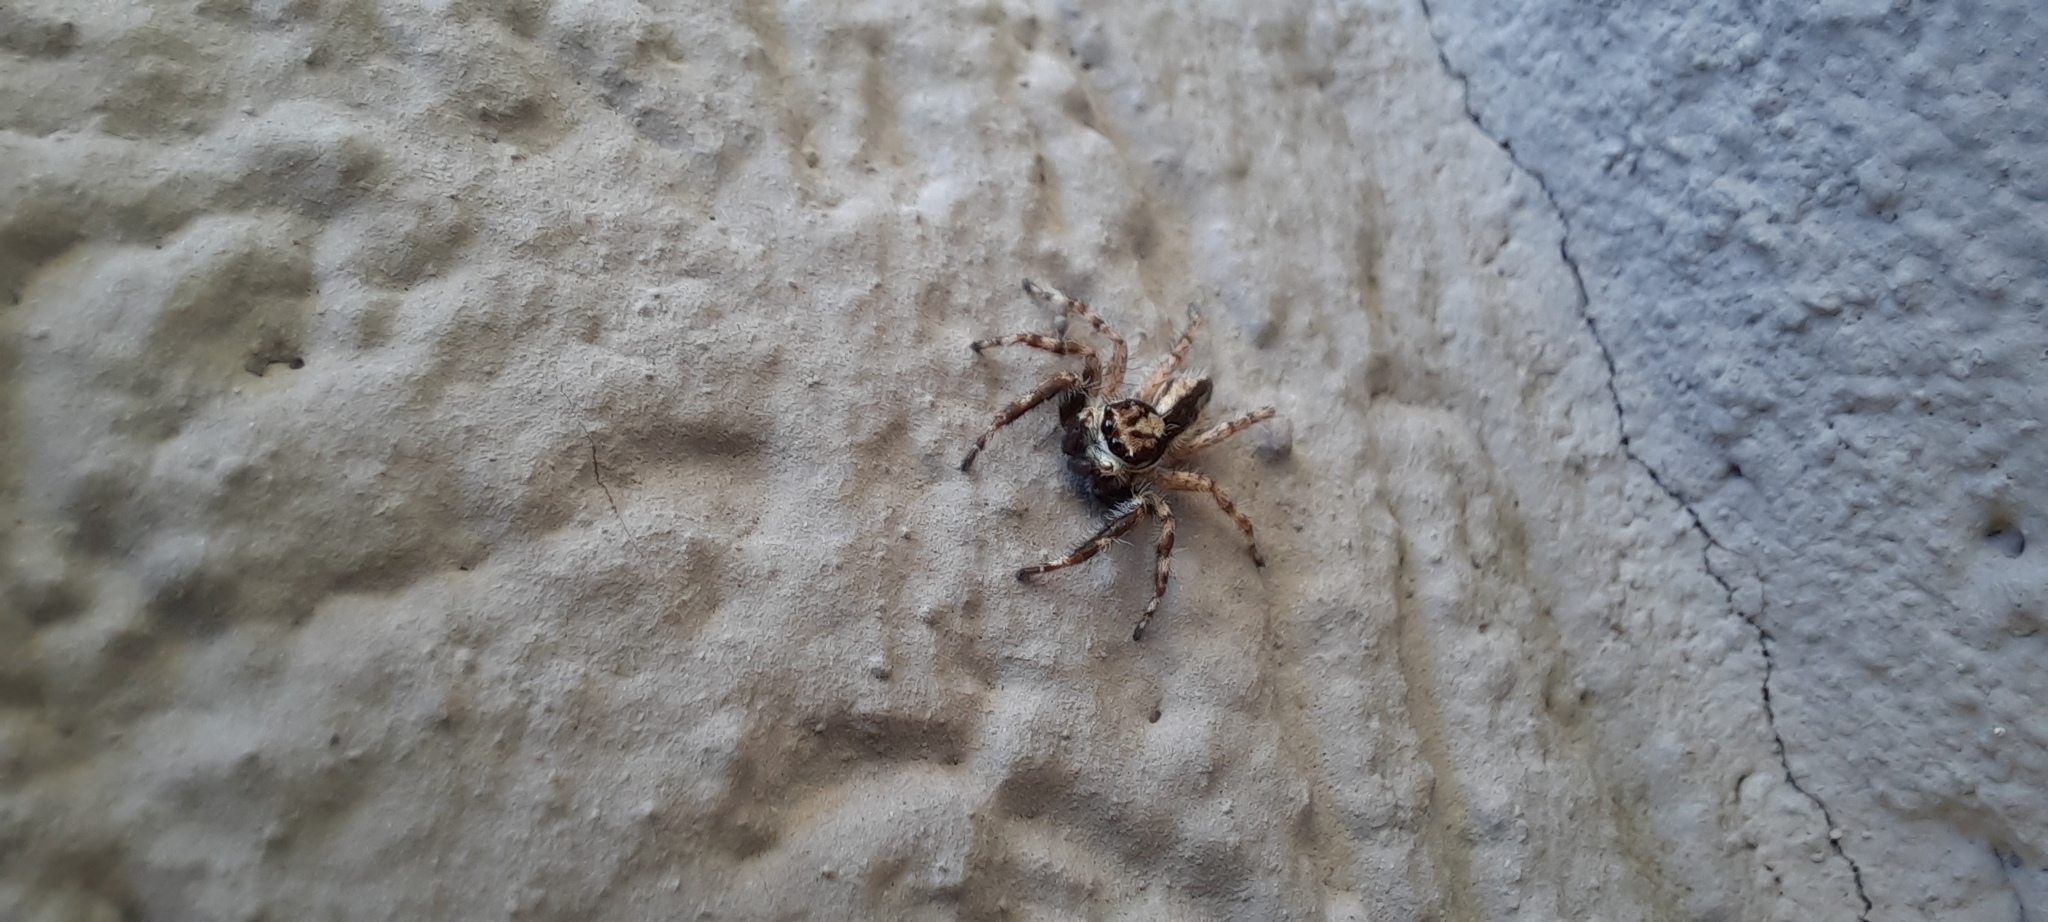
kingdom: Animalia
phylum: Arthropoda
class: Arachnida
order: Araneae
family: Salticidae
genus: Menemerus
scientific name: Menemerus bivittatus
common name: Gray wall jumper
